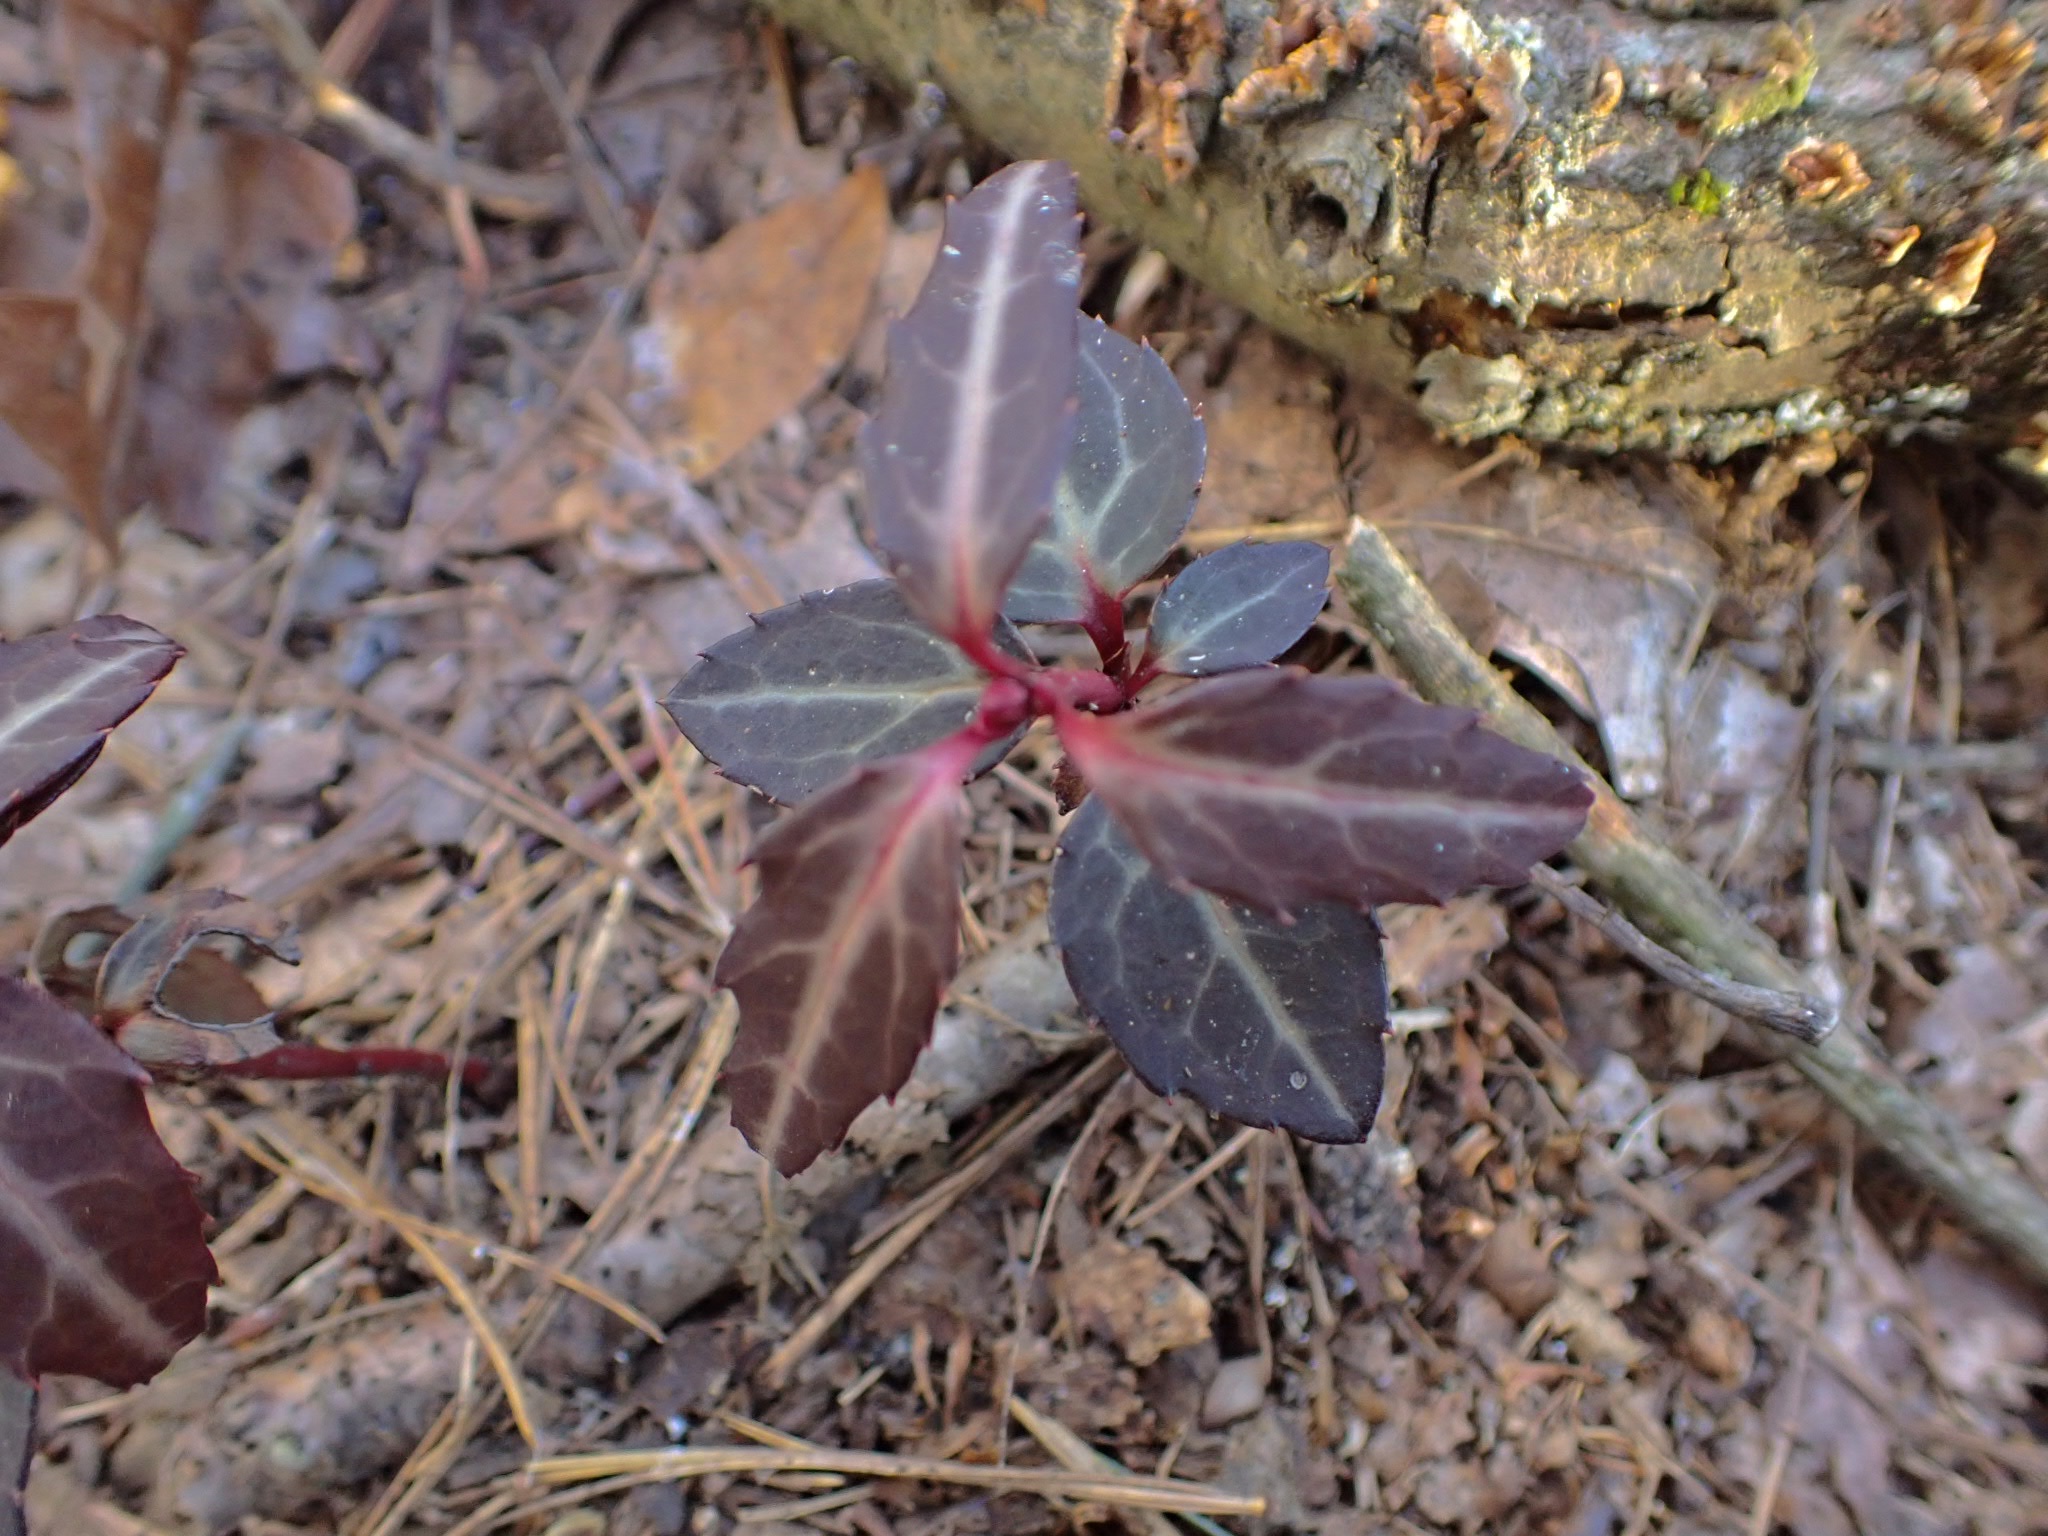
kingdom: Plantae
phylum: Tracheophyta
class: Magnoliopsida
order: Ericales
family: Ericaceae
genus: Chimaphila
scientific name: Chimaphila maculata
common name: Spotted pipsissewa
